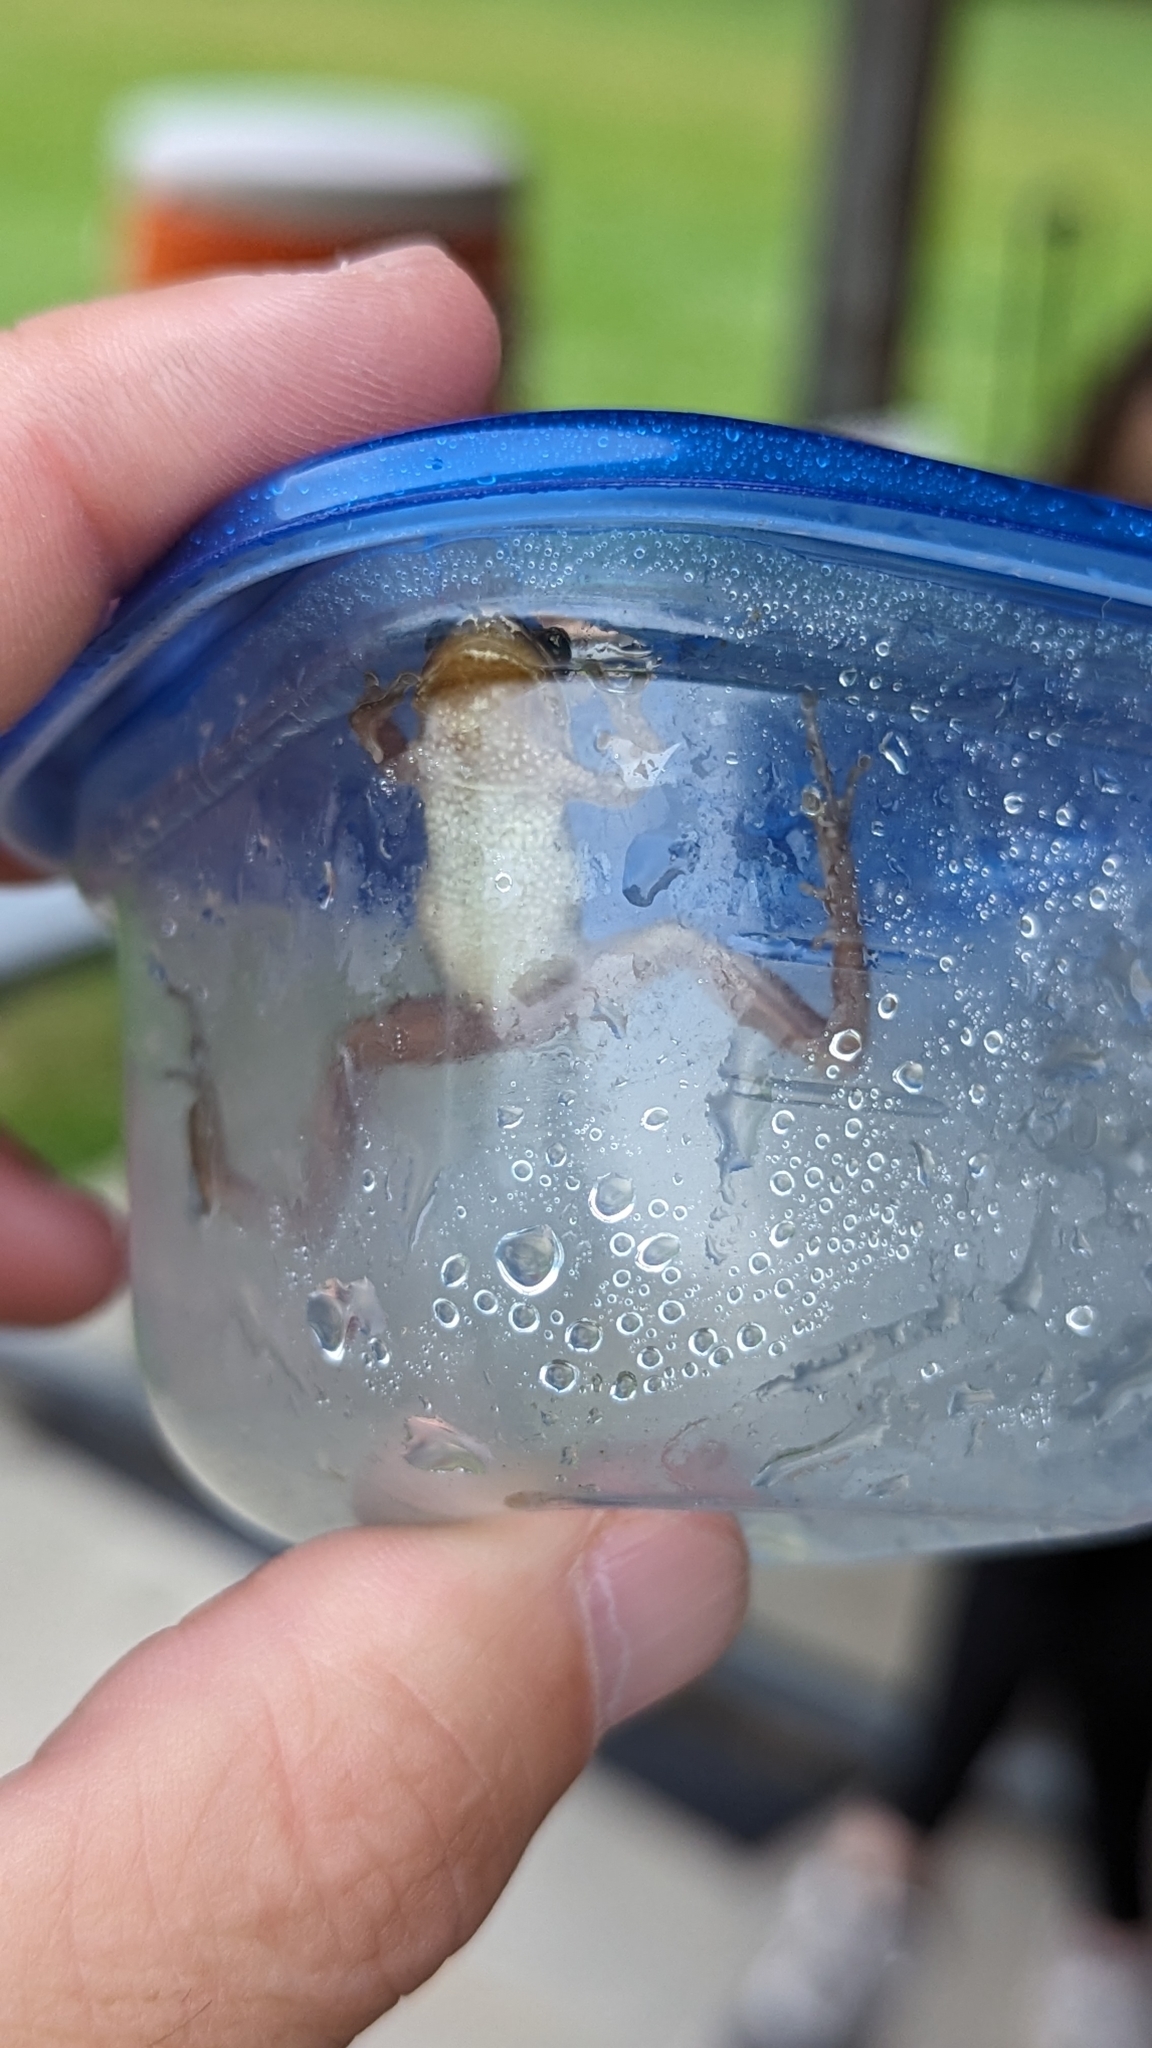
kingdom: Animalia
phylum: Chordata
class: Amphibia
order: Anura
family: Hylidae
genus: Pseudacris
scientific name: Pseudacris triseriata
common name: Western chorus frog
